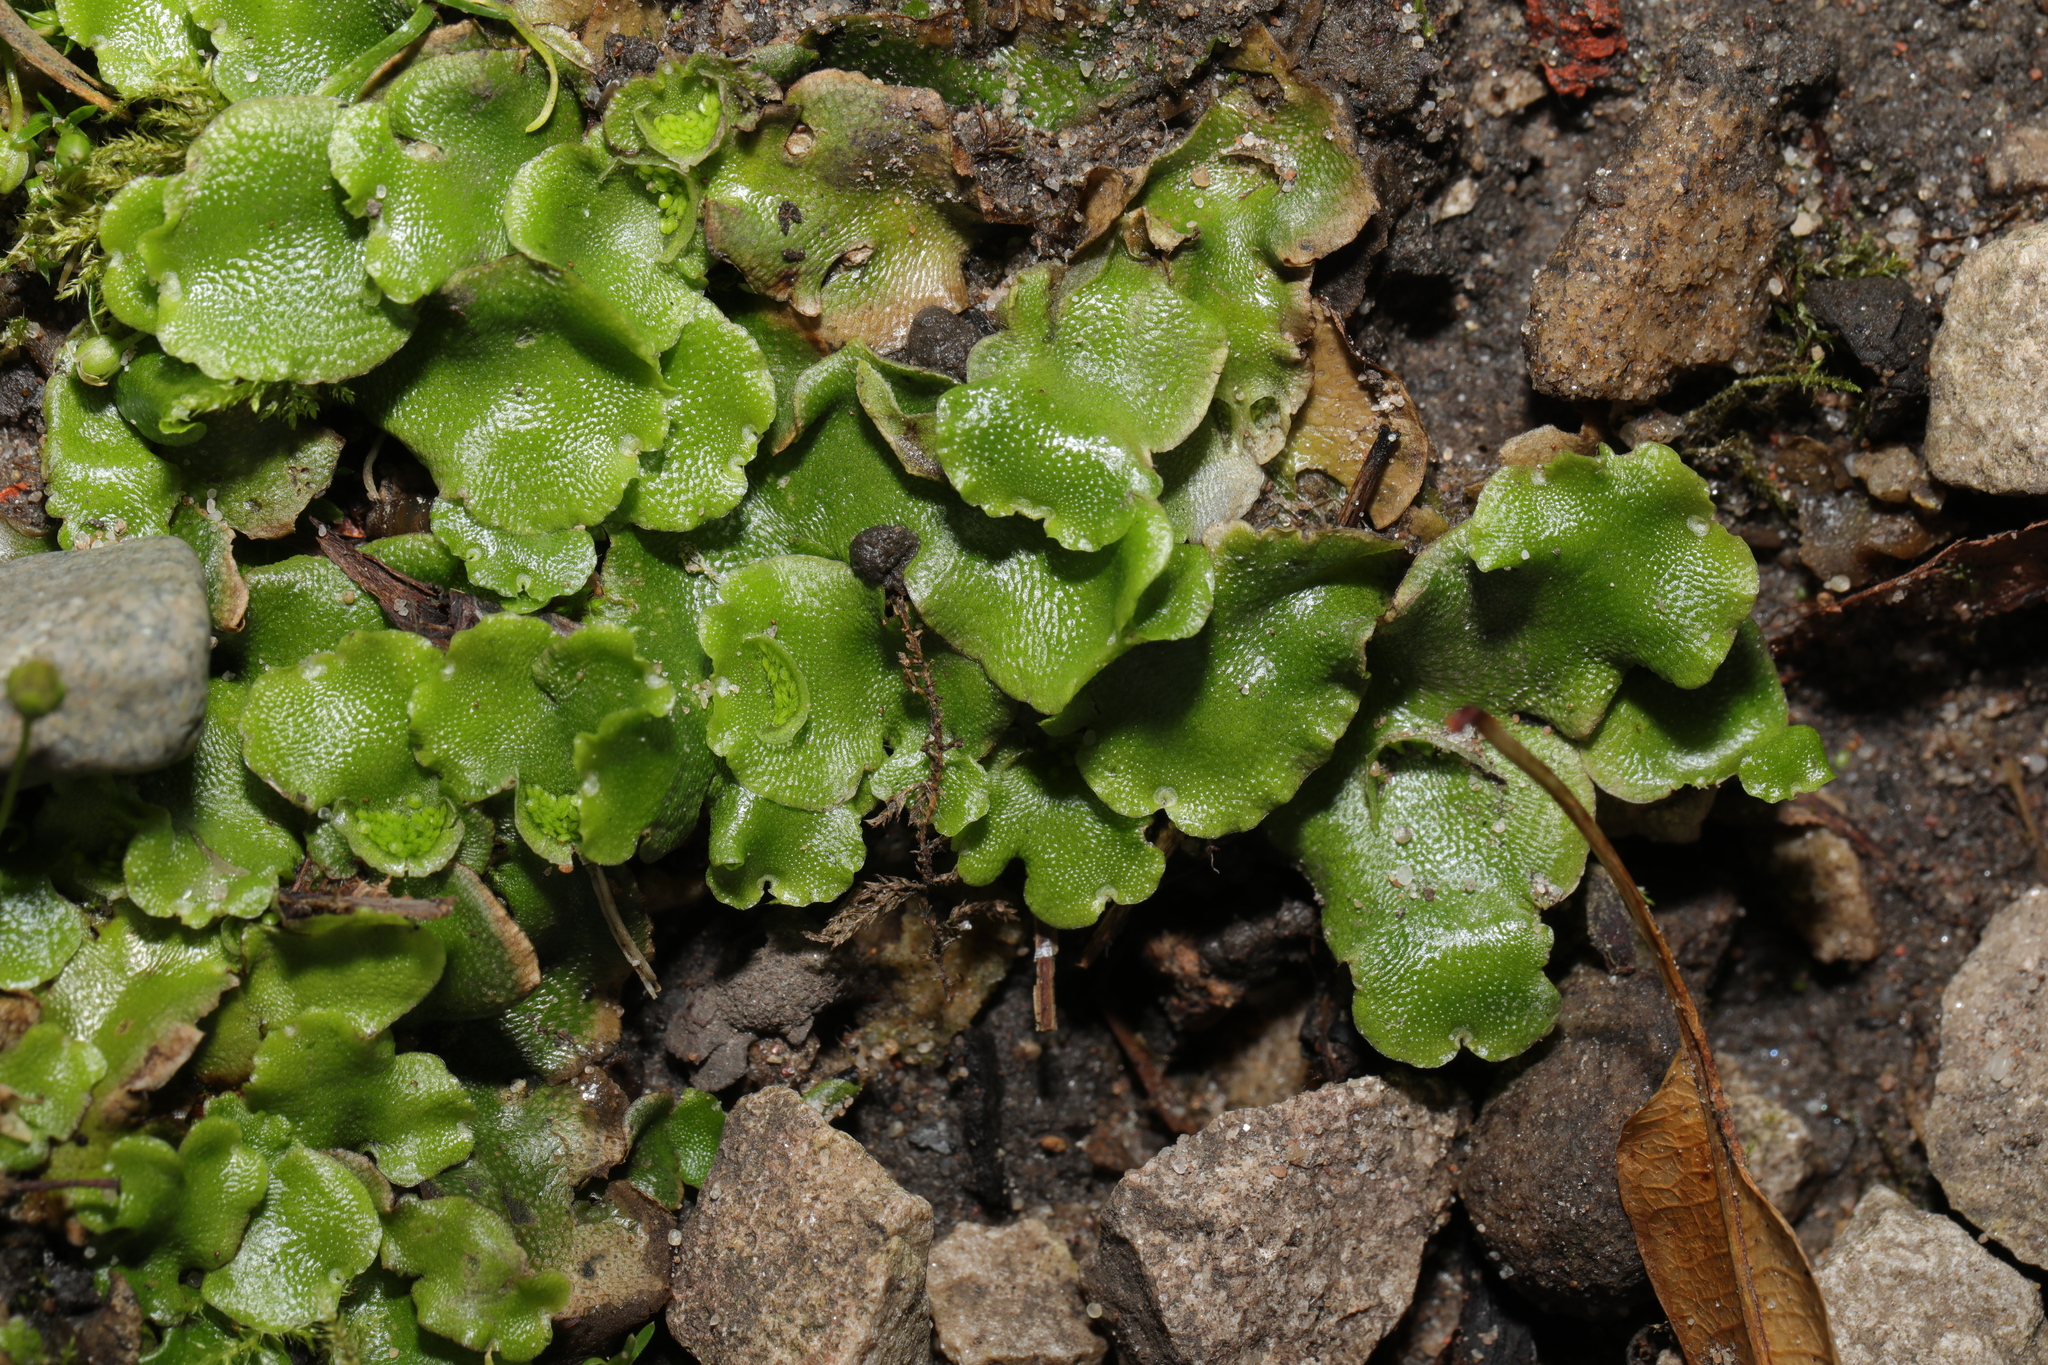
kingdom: Plantae
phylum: Marchantiophyta
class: Marchantiopsida
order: Lunulariales
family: Lunulariaceae
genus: Lunularia
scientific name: Lunularia cruciata
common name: Crescent-cup liverwort
